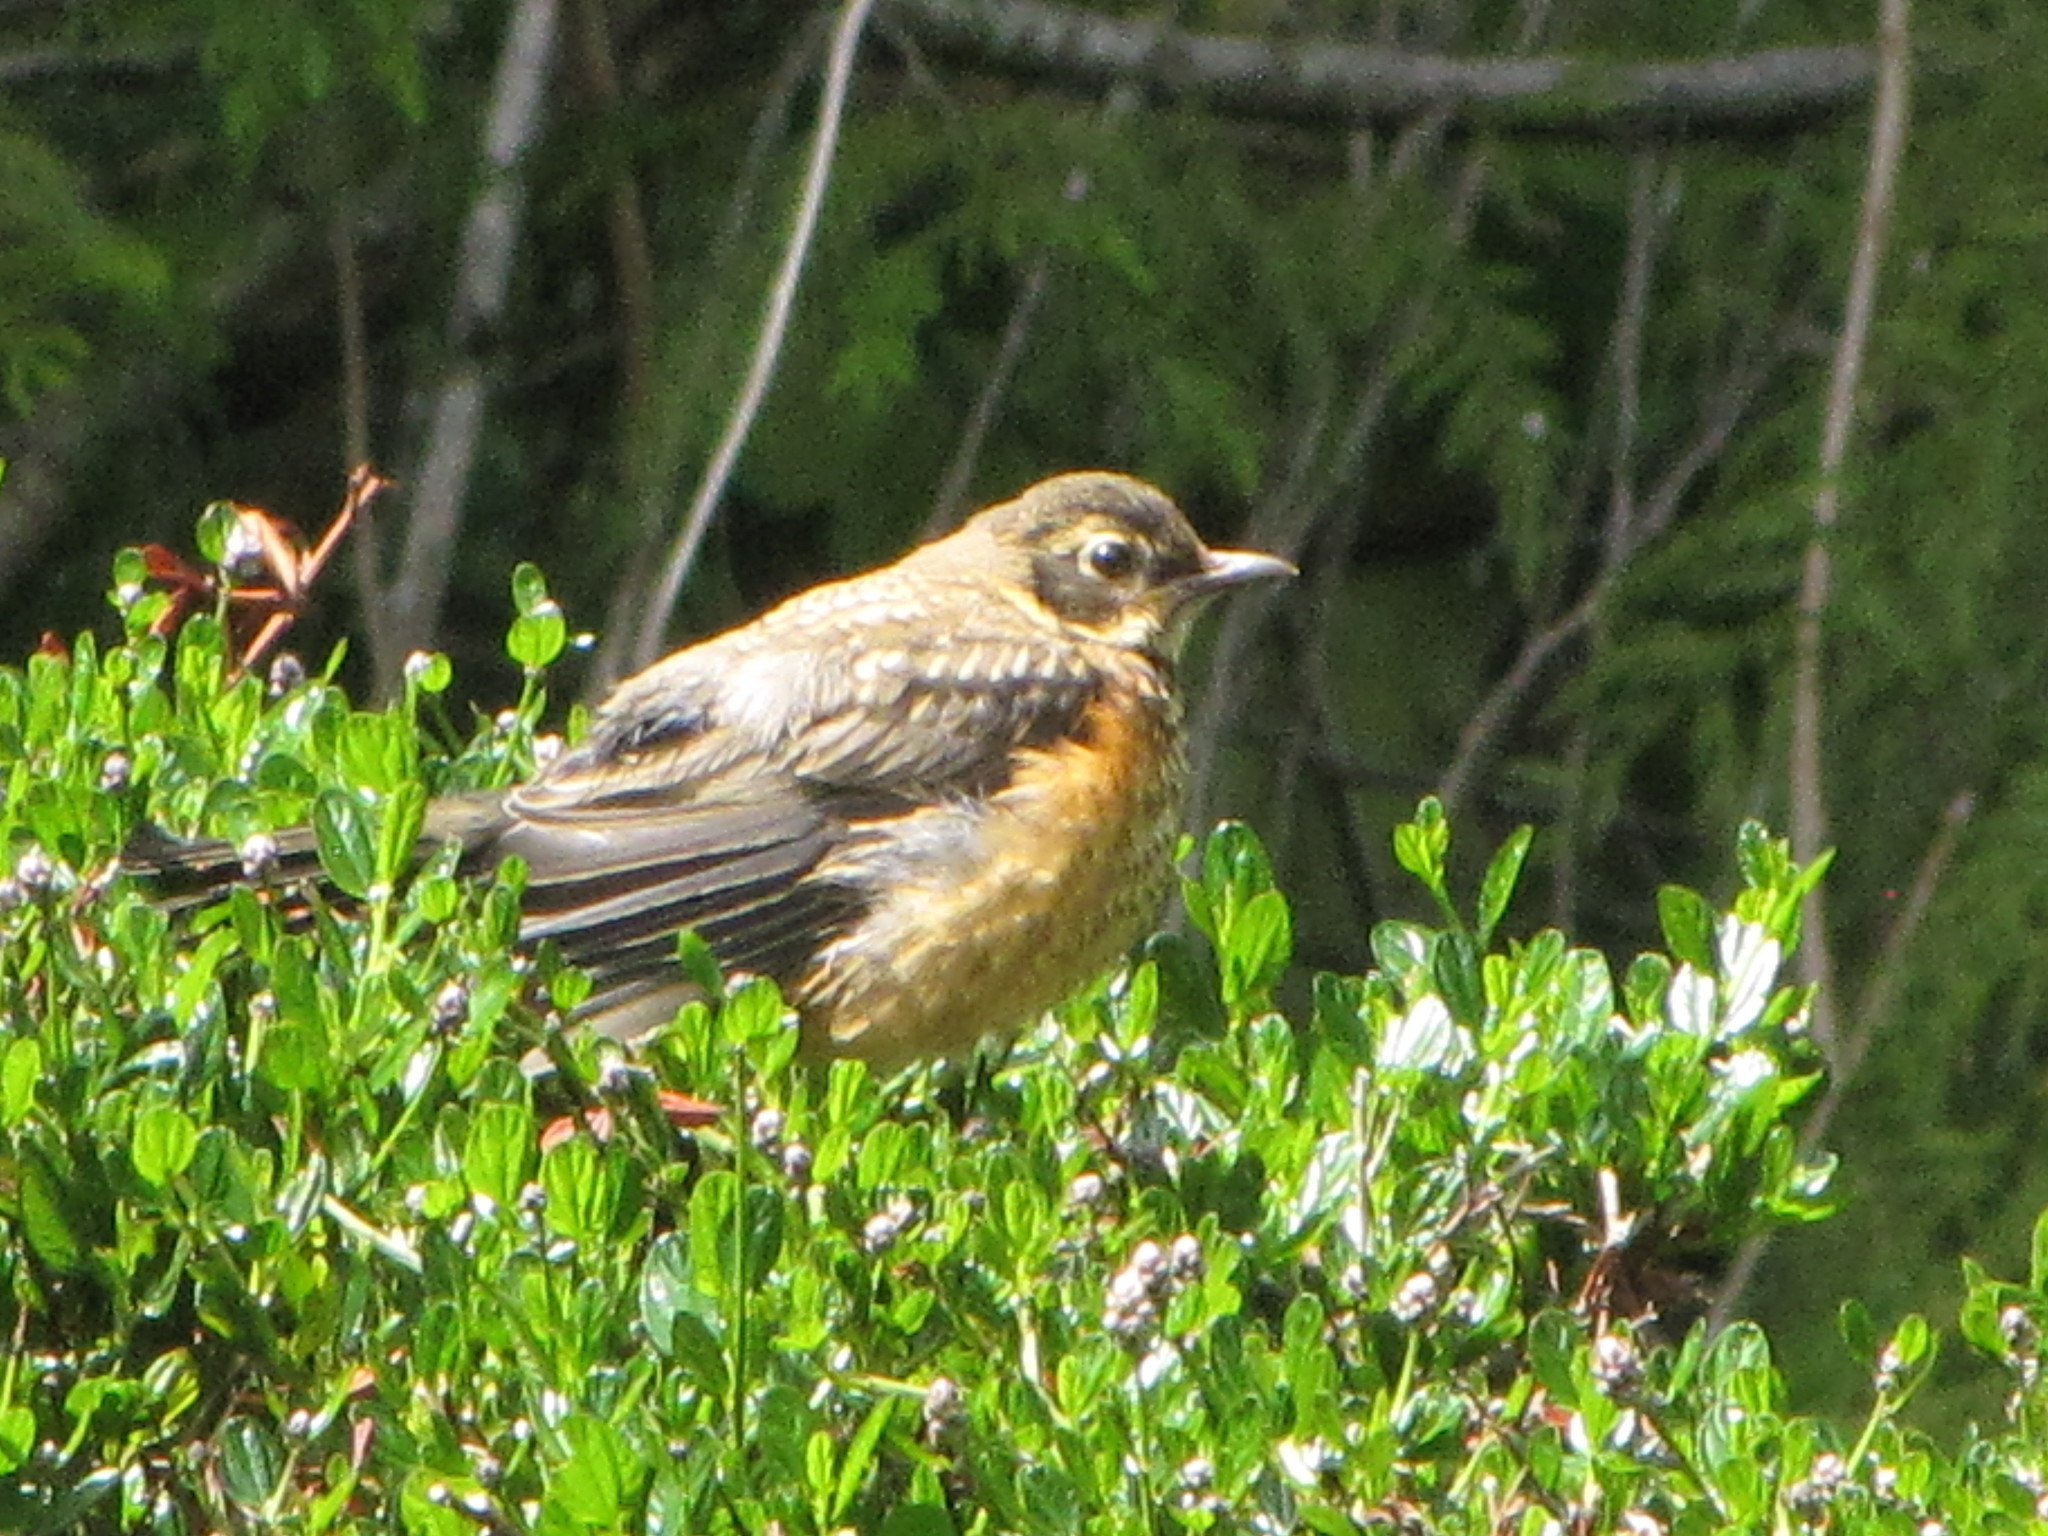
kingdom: Animalia
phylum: Chordata
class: Aves
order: Passeriformes
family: Turdidae
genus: Turdus
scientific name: Turdus migratorius
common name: American robin
